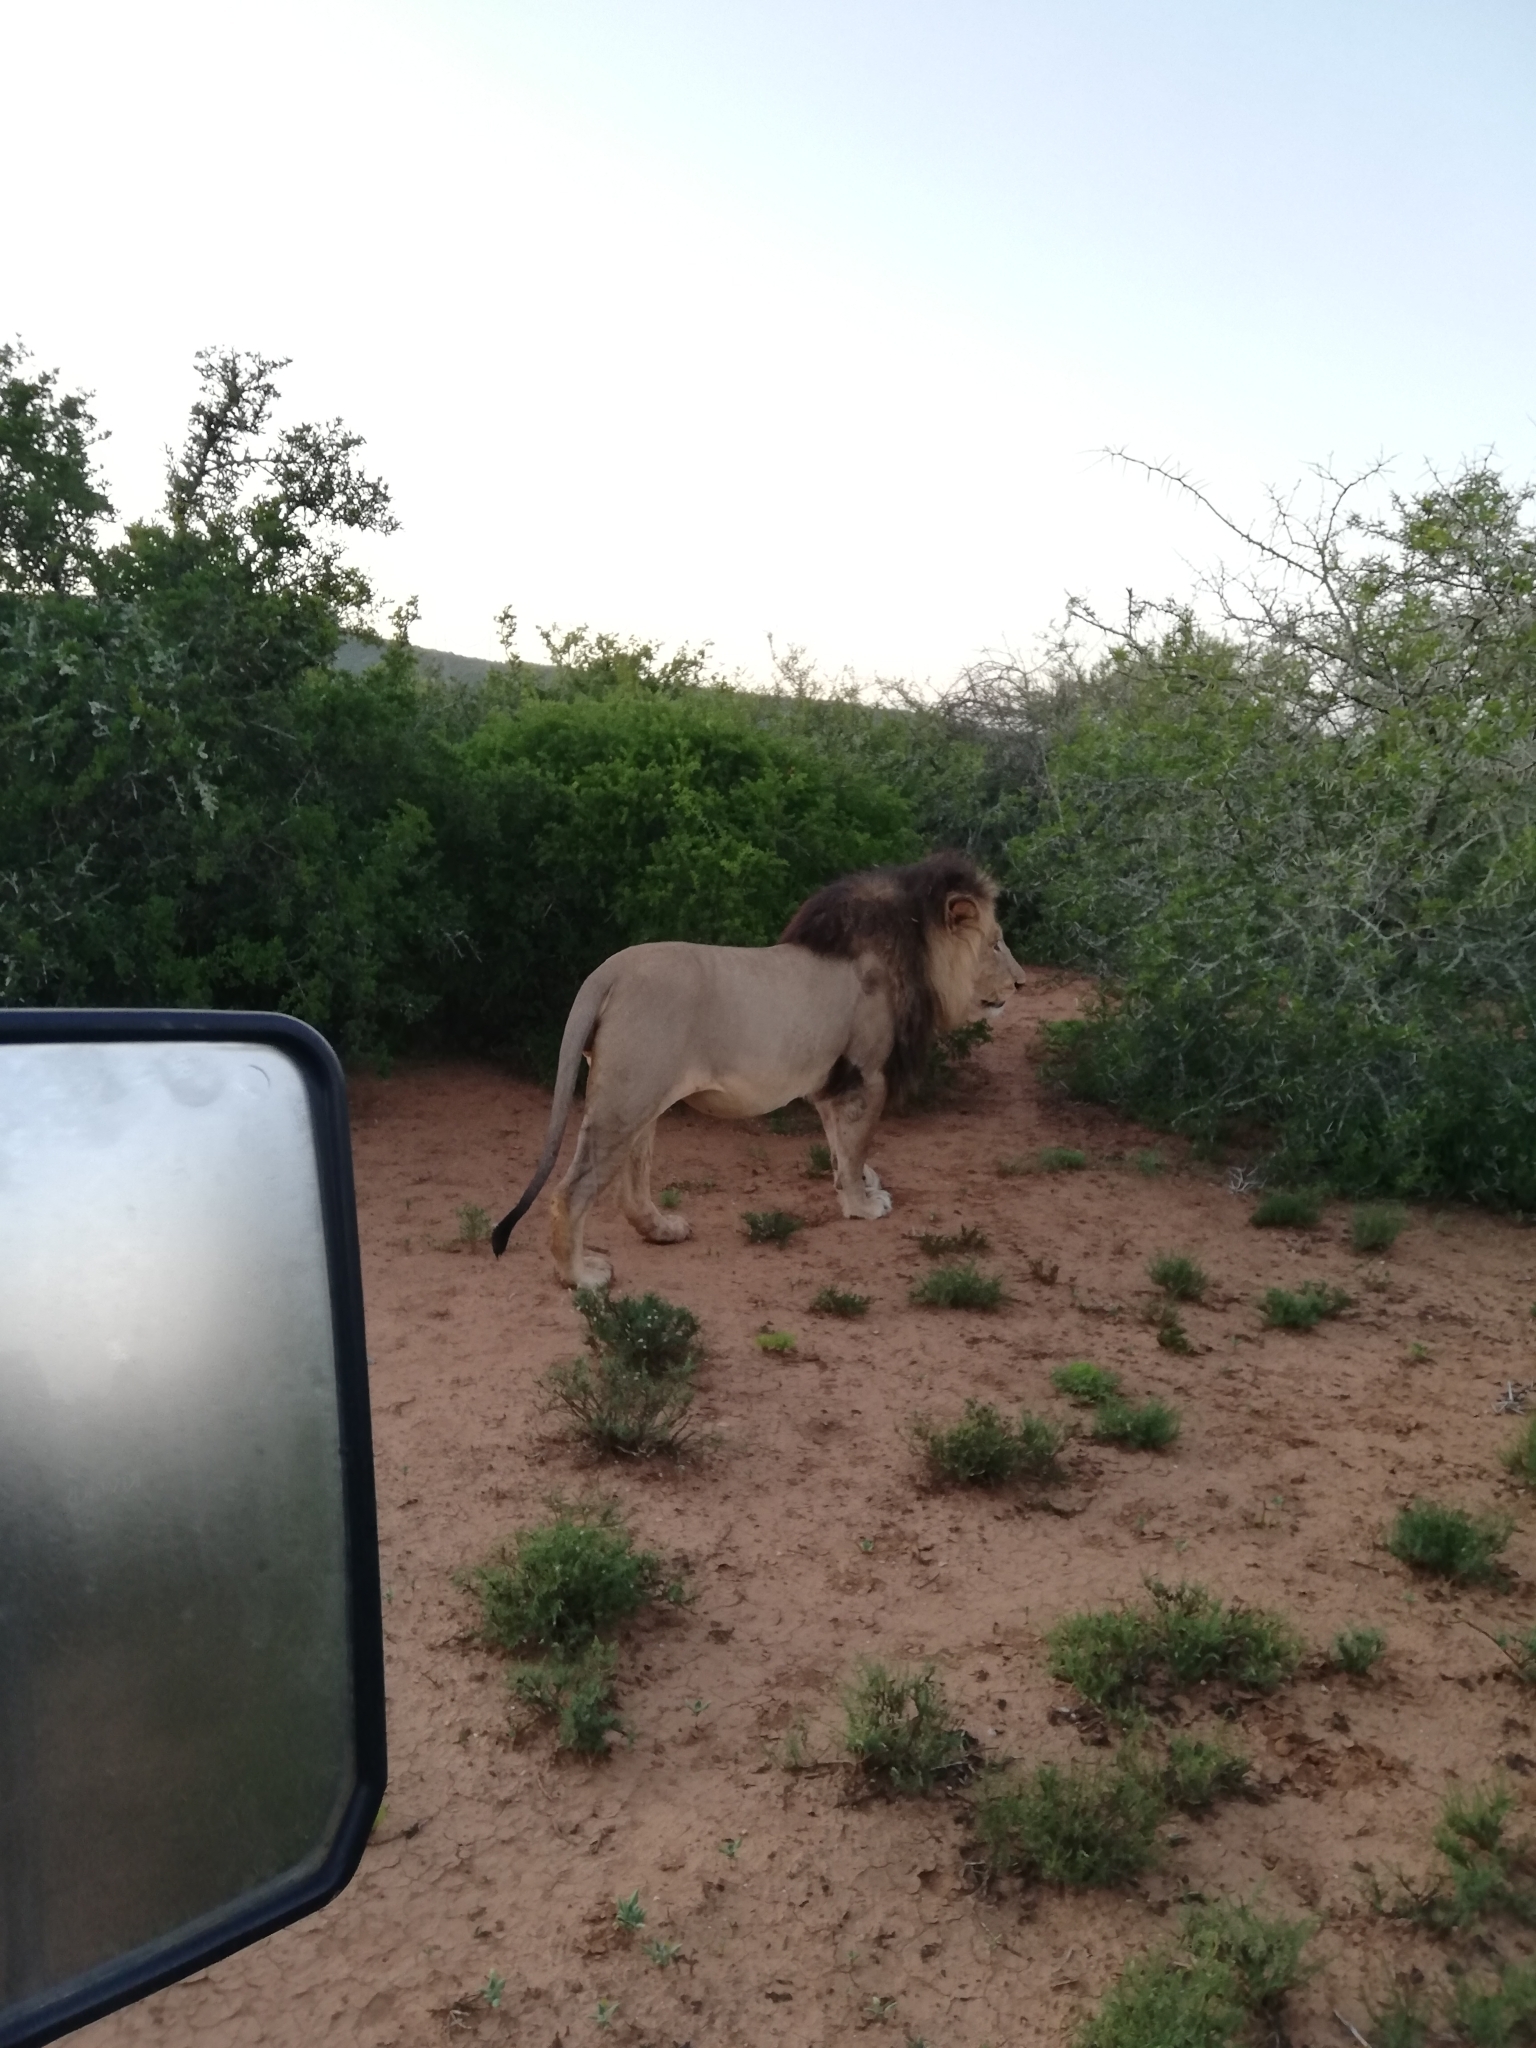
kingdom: Animalia
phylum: Chordata
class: Mammalia
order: Carnivora
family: Felidae
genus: Panthera
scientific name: Panthera leo
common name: Lion
